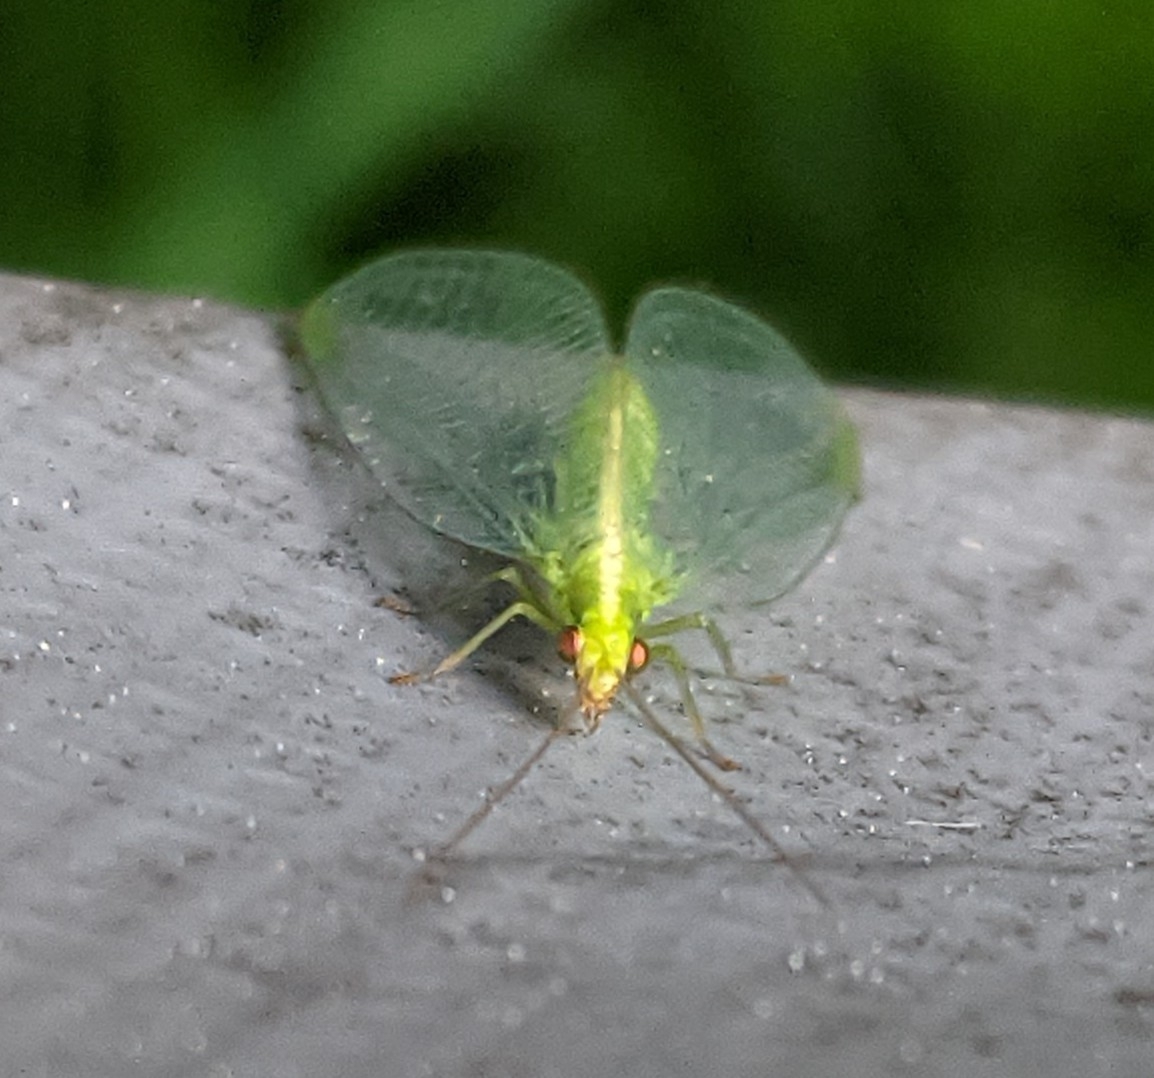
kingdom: Animalia
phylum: Arthropoda
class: Insecta
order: Neuroptera
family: Chrysopidae
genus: Chrysoperla
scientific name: Chrysoperla
